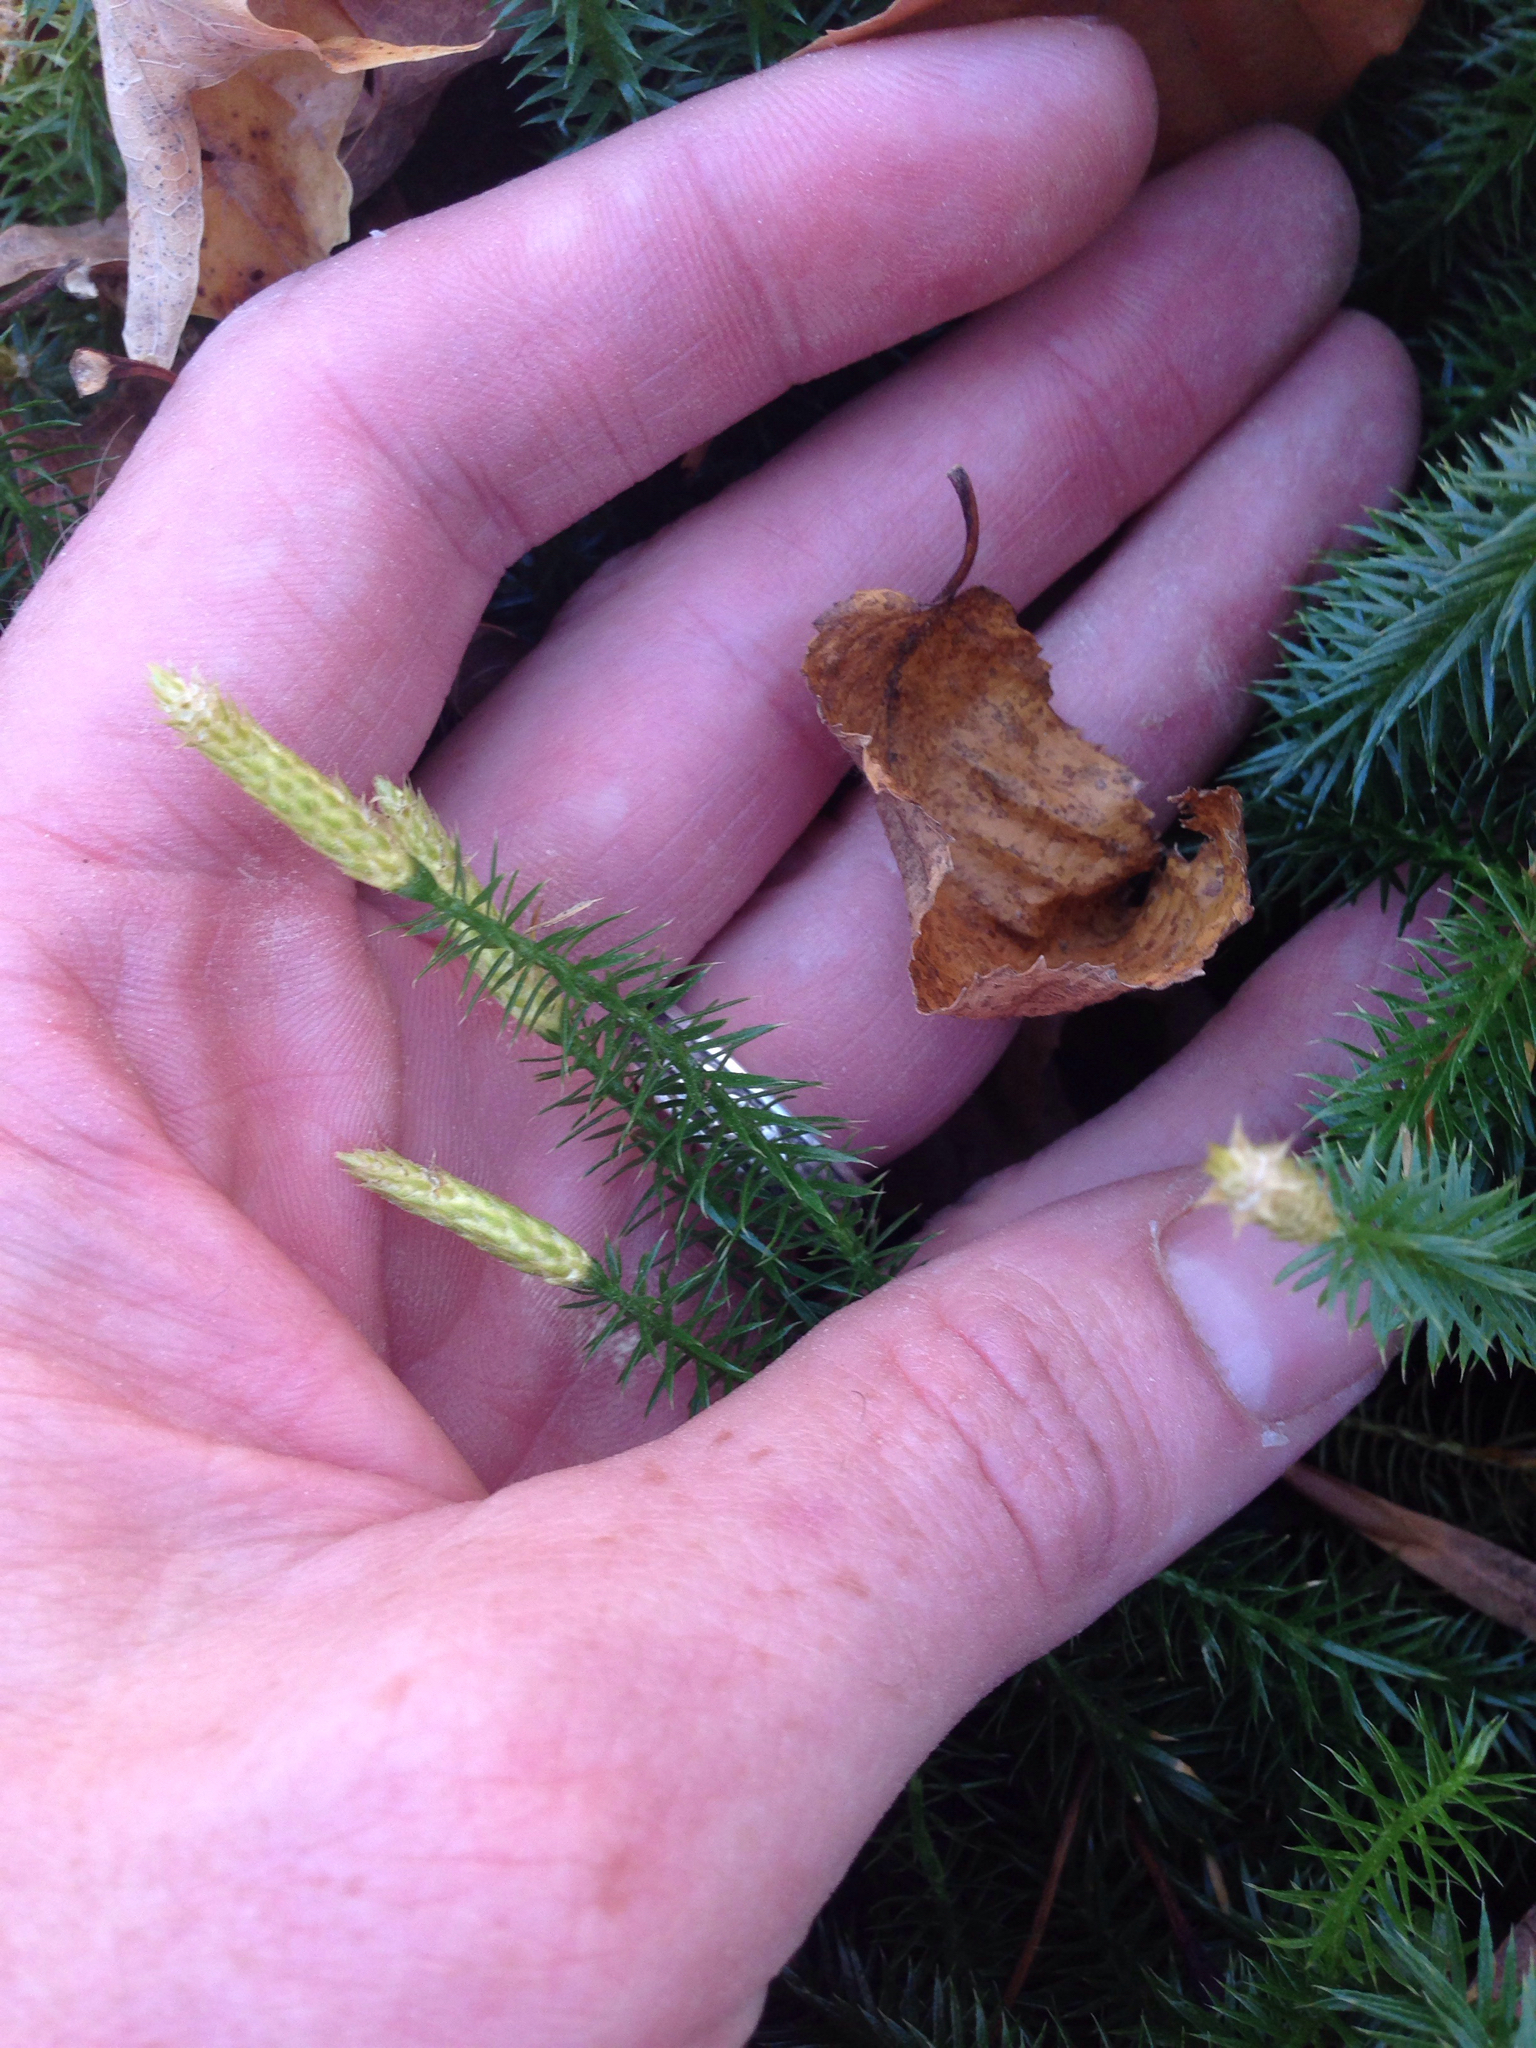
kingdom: Plantae
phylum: Tracheophyta
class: Lycopodiopsida
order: Lycopodiales
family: Lycopodiaceae
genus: Spinulum
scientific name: Spinulum annotinum
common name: Interrupted club-moss
